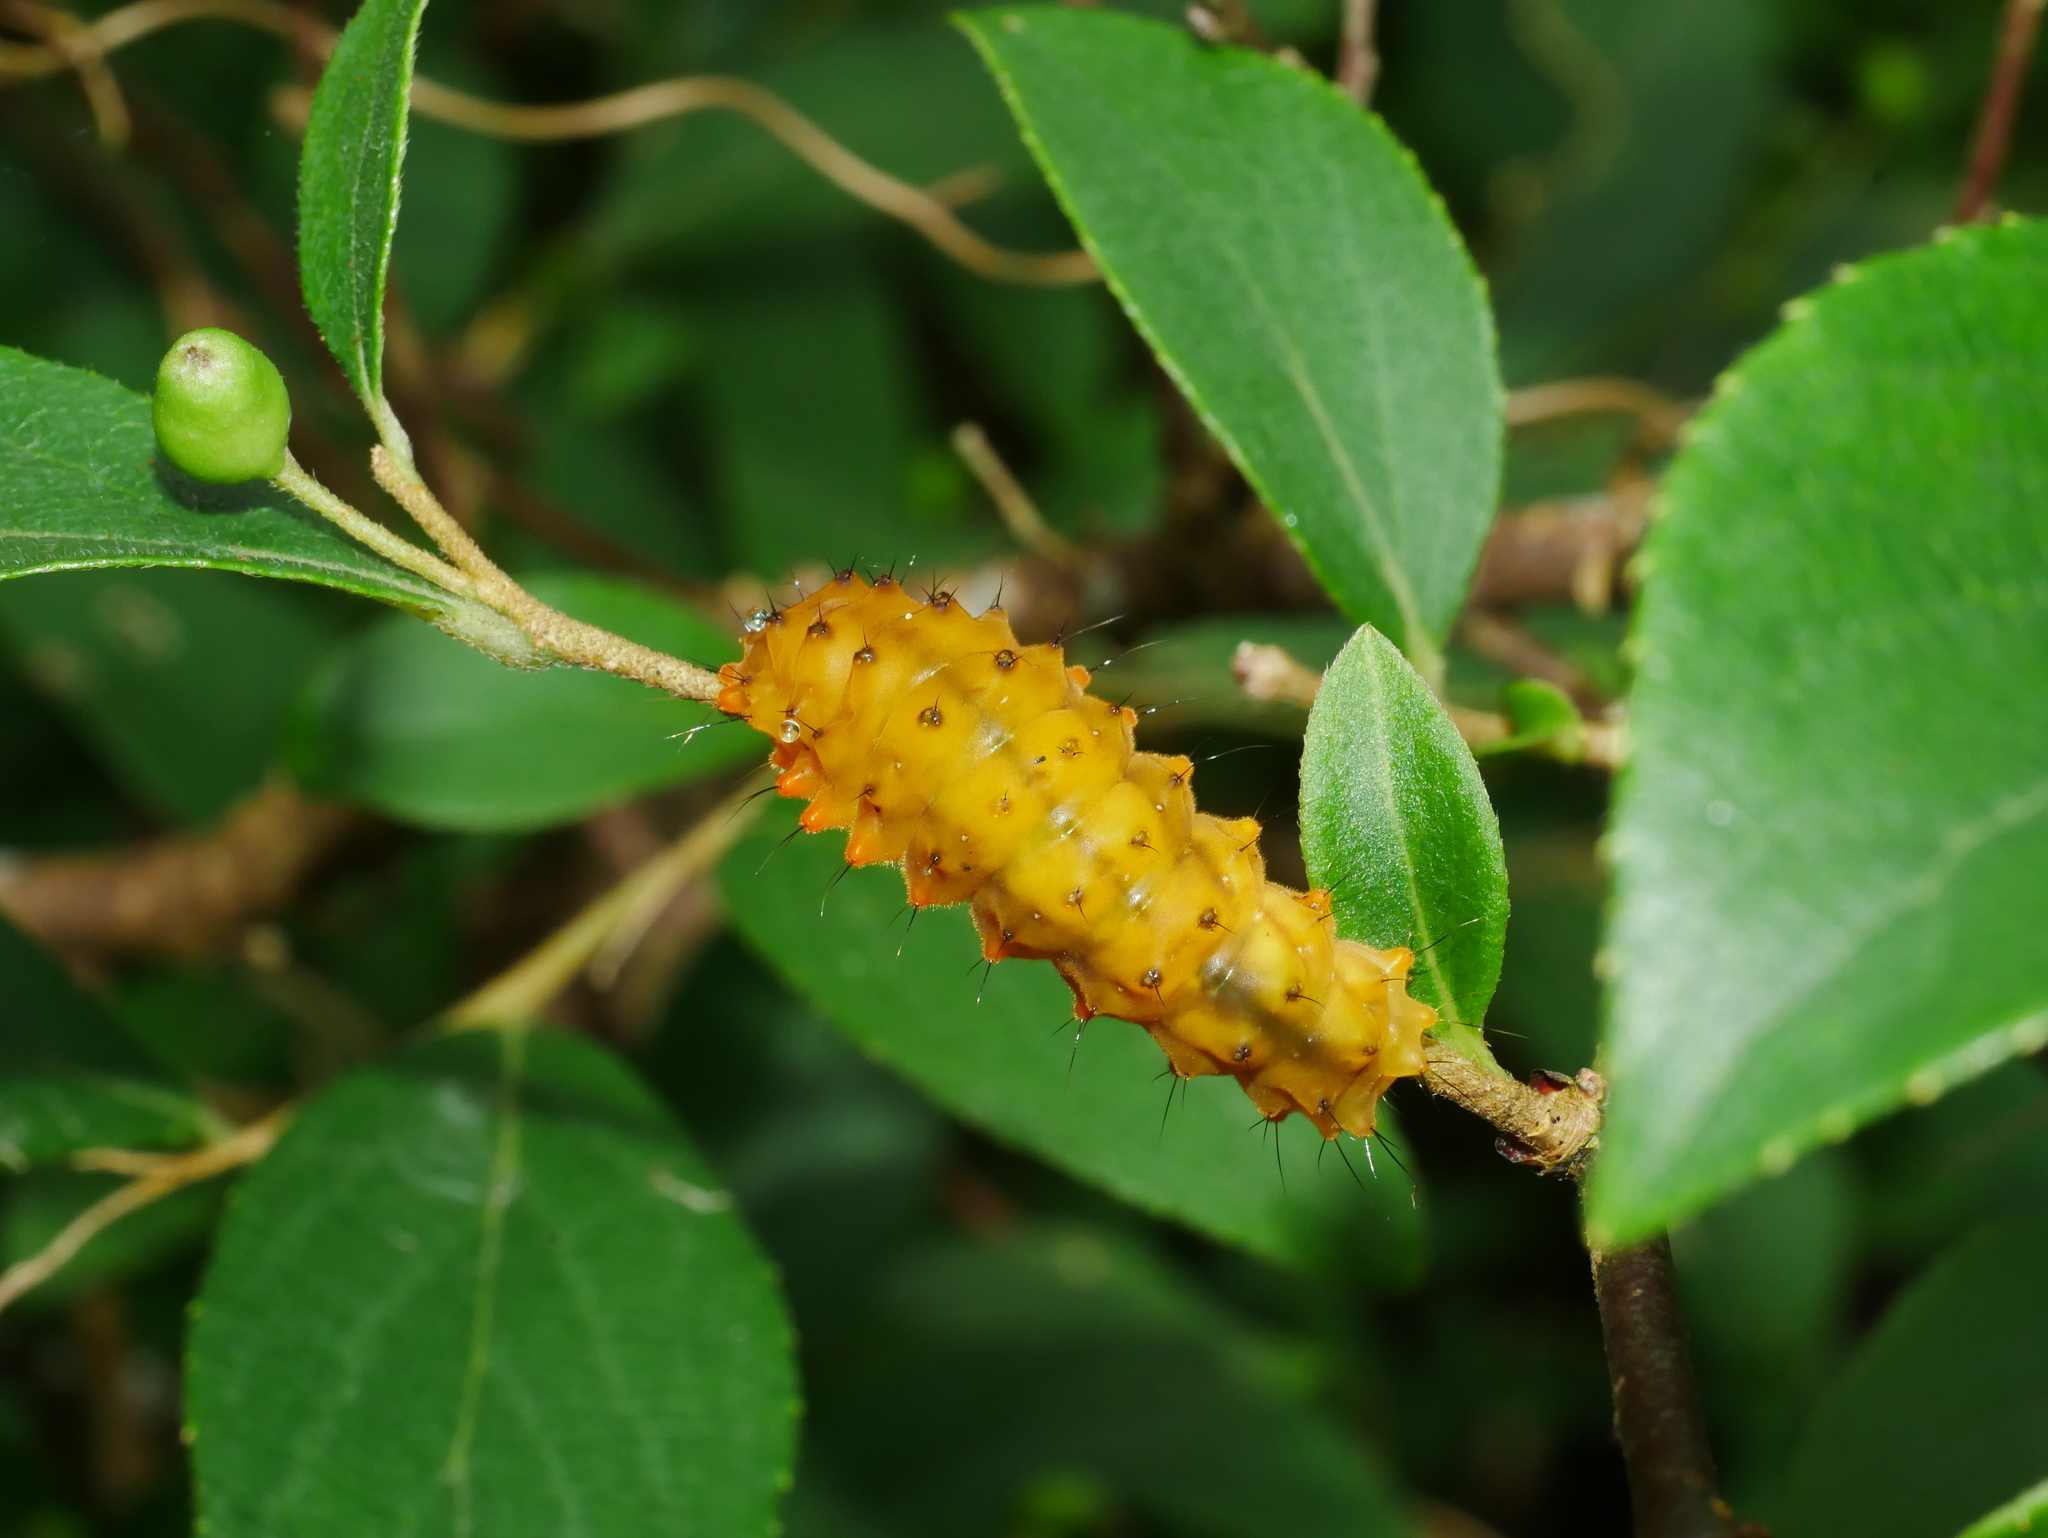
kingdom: Animalia
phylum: Arthropoda
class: Insecta
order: Lepidoptera
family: Zygaenidae
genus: Eterusia
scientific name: Eterusia aedea
